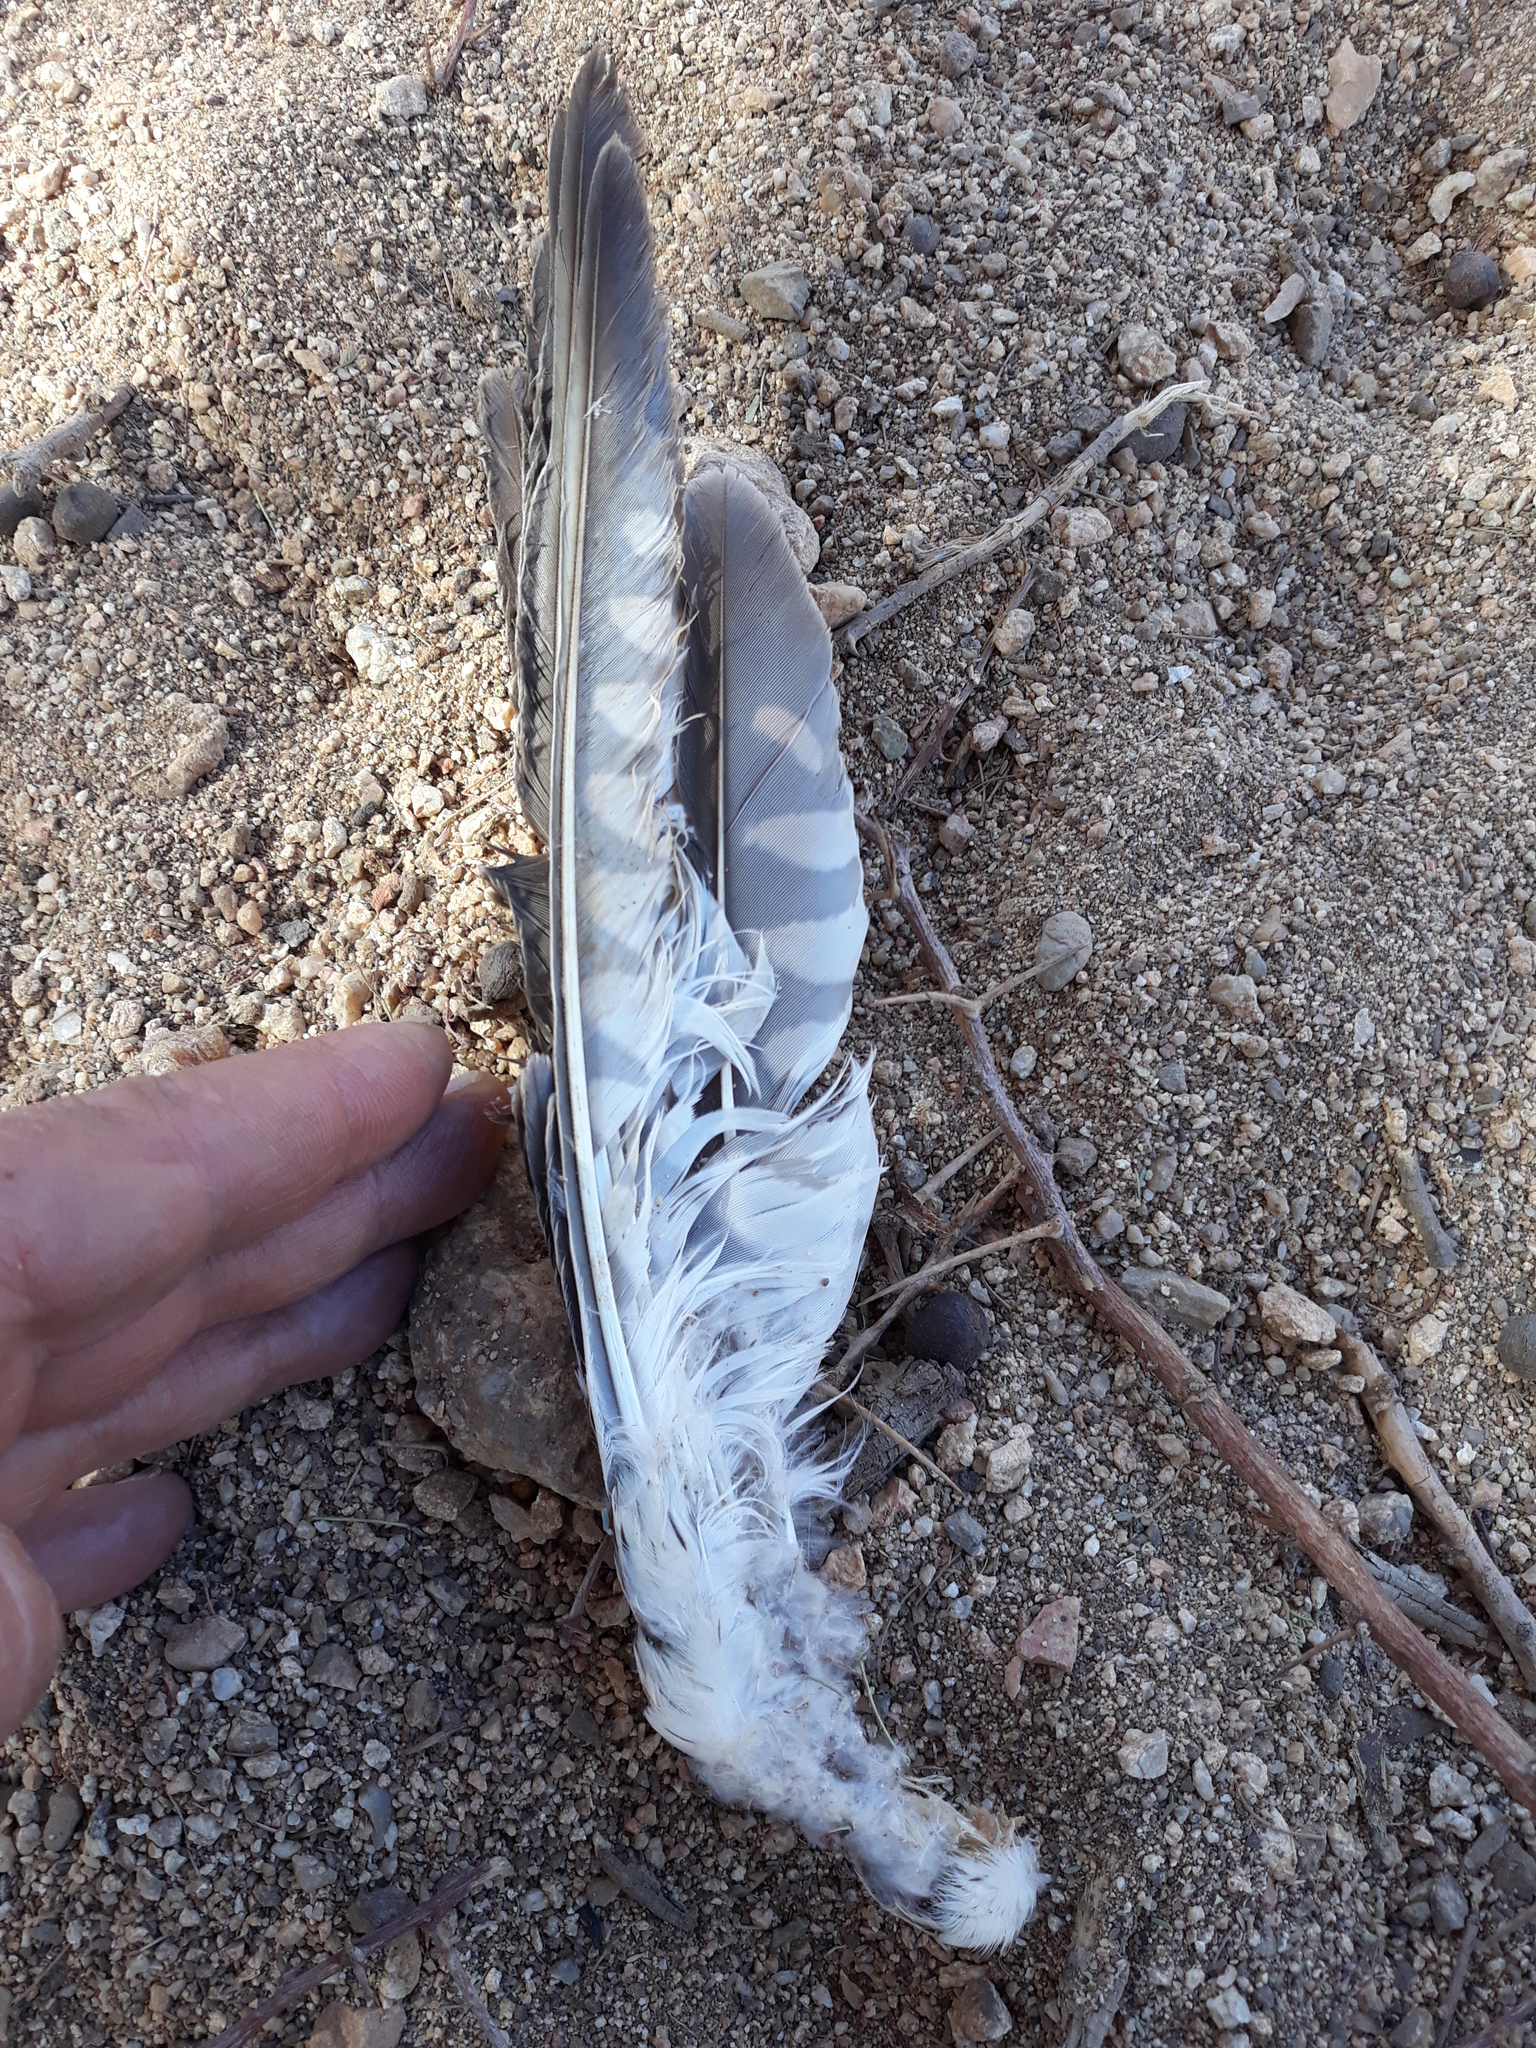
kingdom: Animalia
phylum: Chordata
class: Aves
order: Falconiformes
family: Falconidae
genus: Falco
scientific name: Falco tinnunculus
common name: Common kestrel
